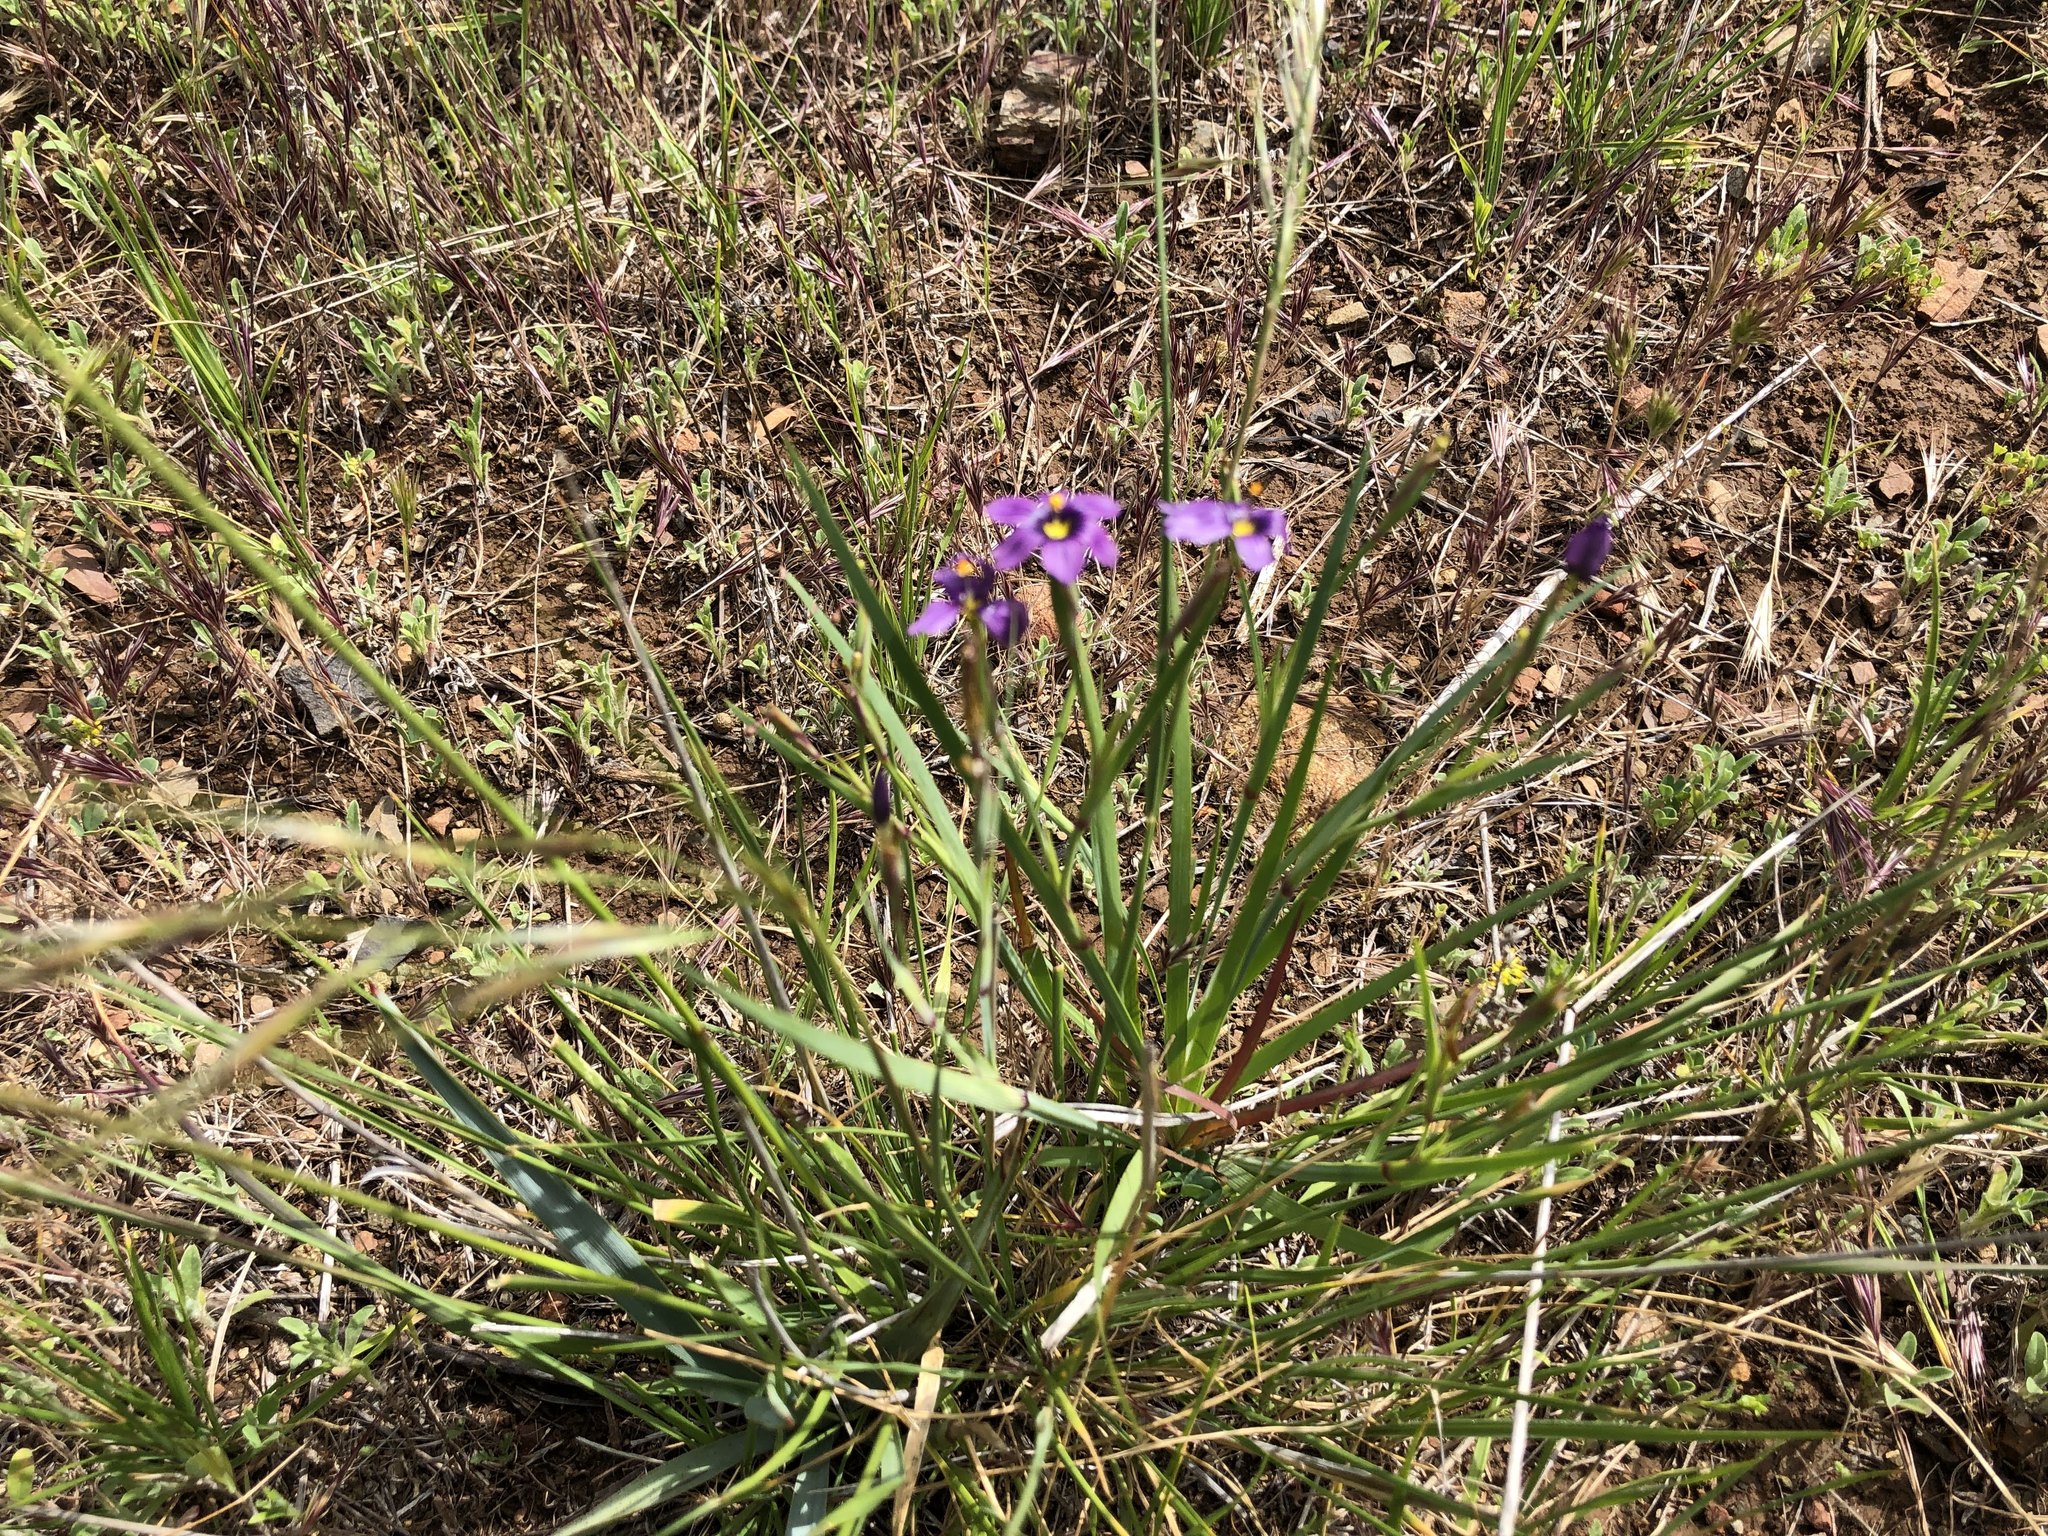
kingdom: Plantae
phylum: Tracheophyta
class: Liliopsida
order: Asparagales
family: Iridaceae
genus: Sisyrinchium
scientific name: Sisyrinchium bellum
